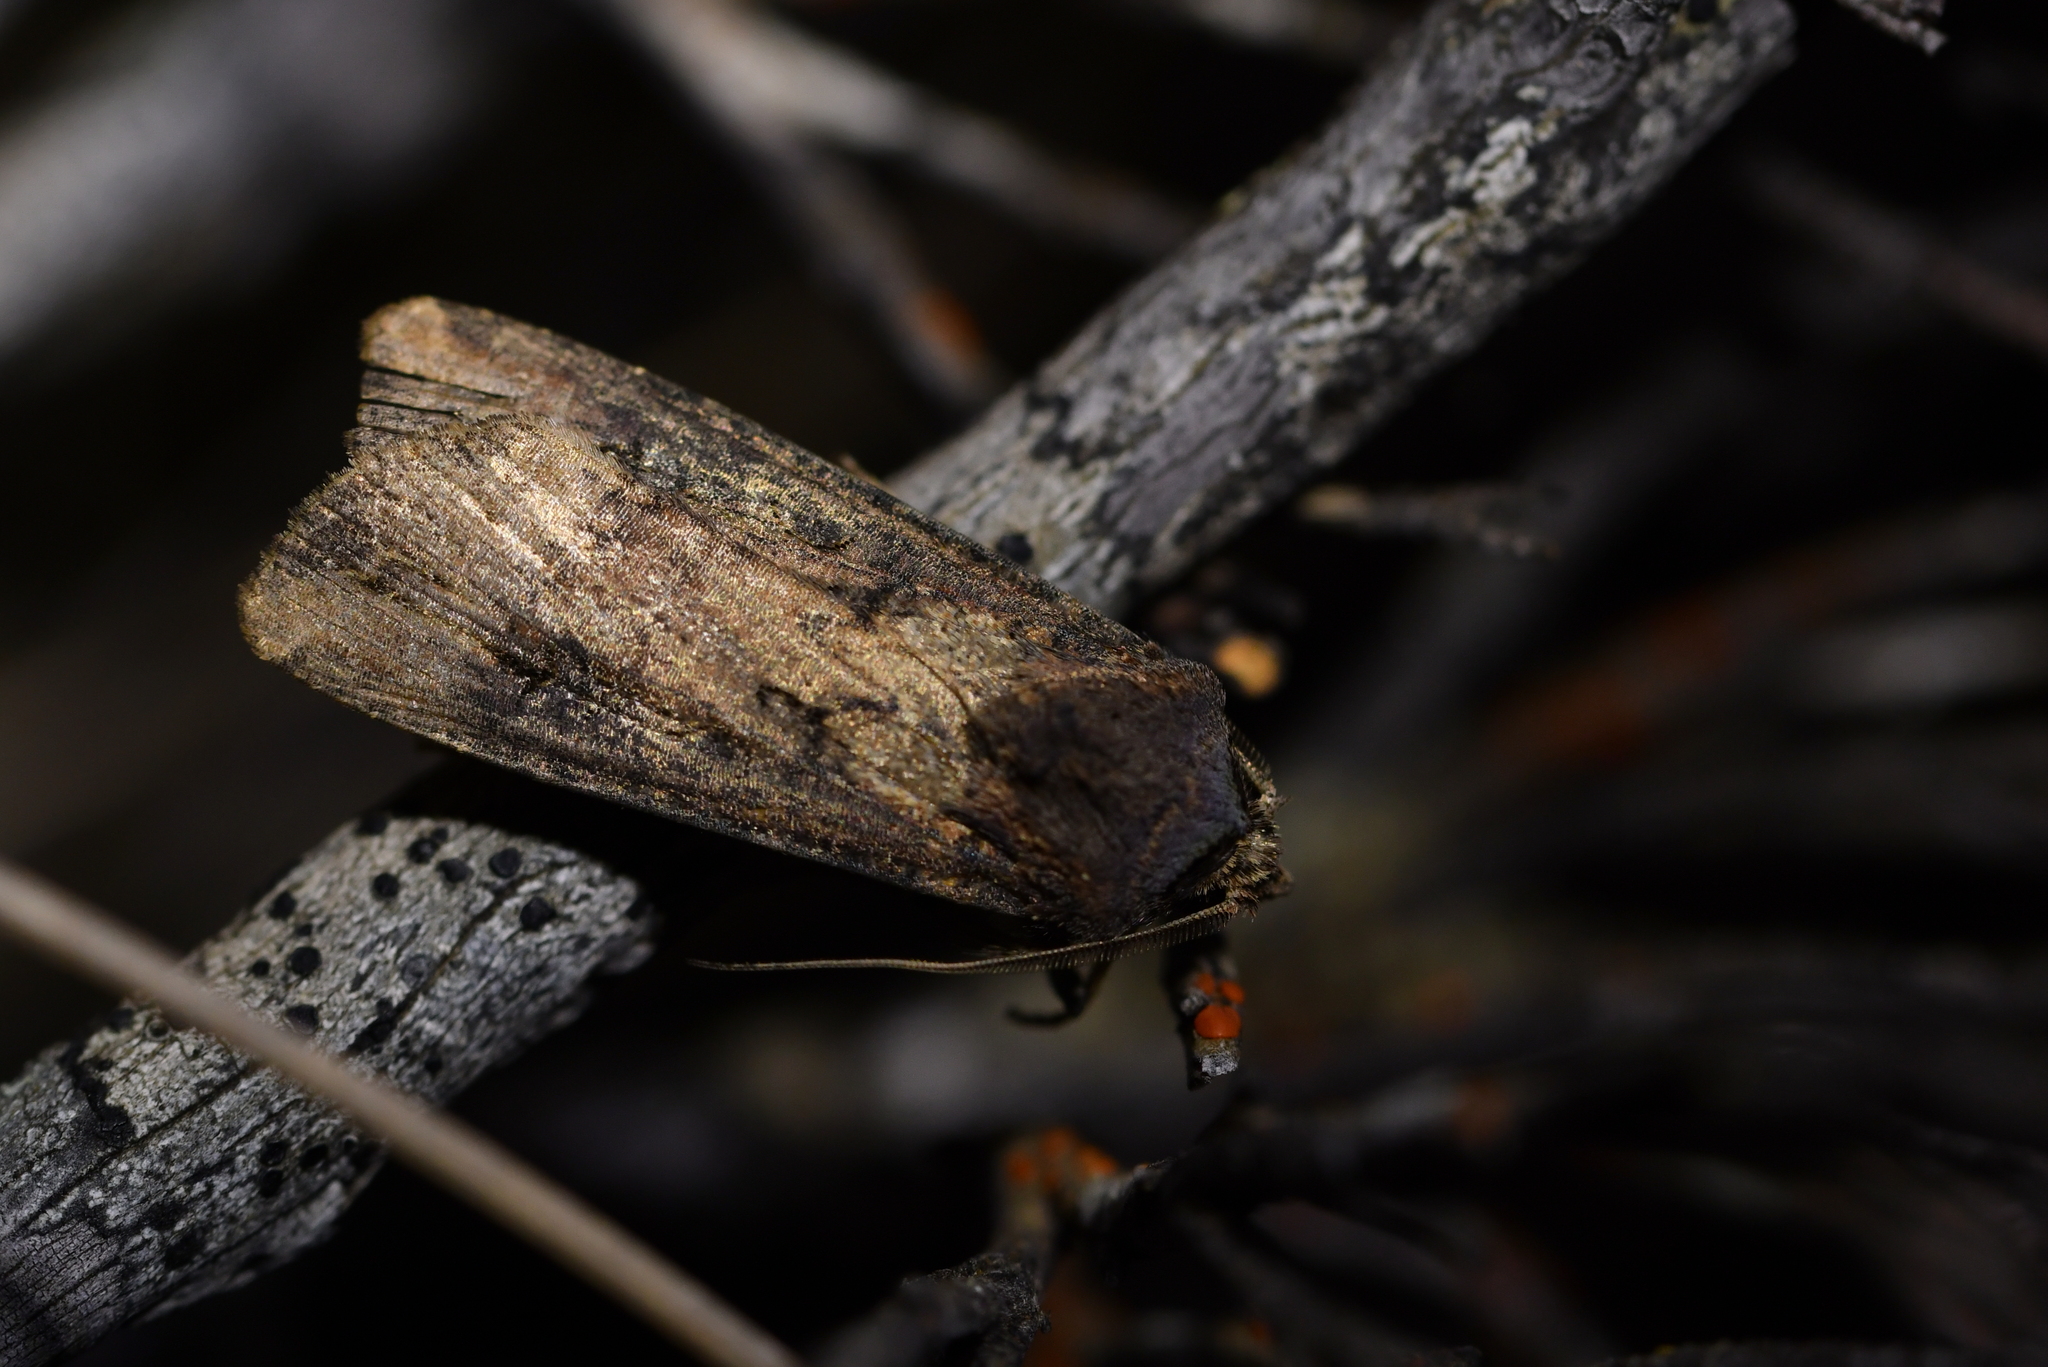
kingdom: Animalia
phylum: Arthropoda
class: Insecta
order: Lepidoptera
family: Noctuidae
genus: Agrotis
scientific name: Agrotis ipsilon
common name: Dark sword-grass
